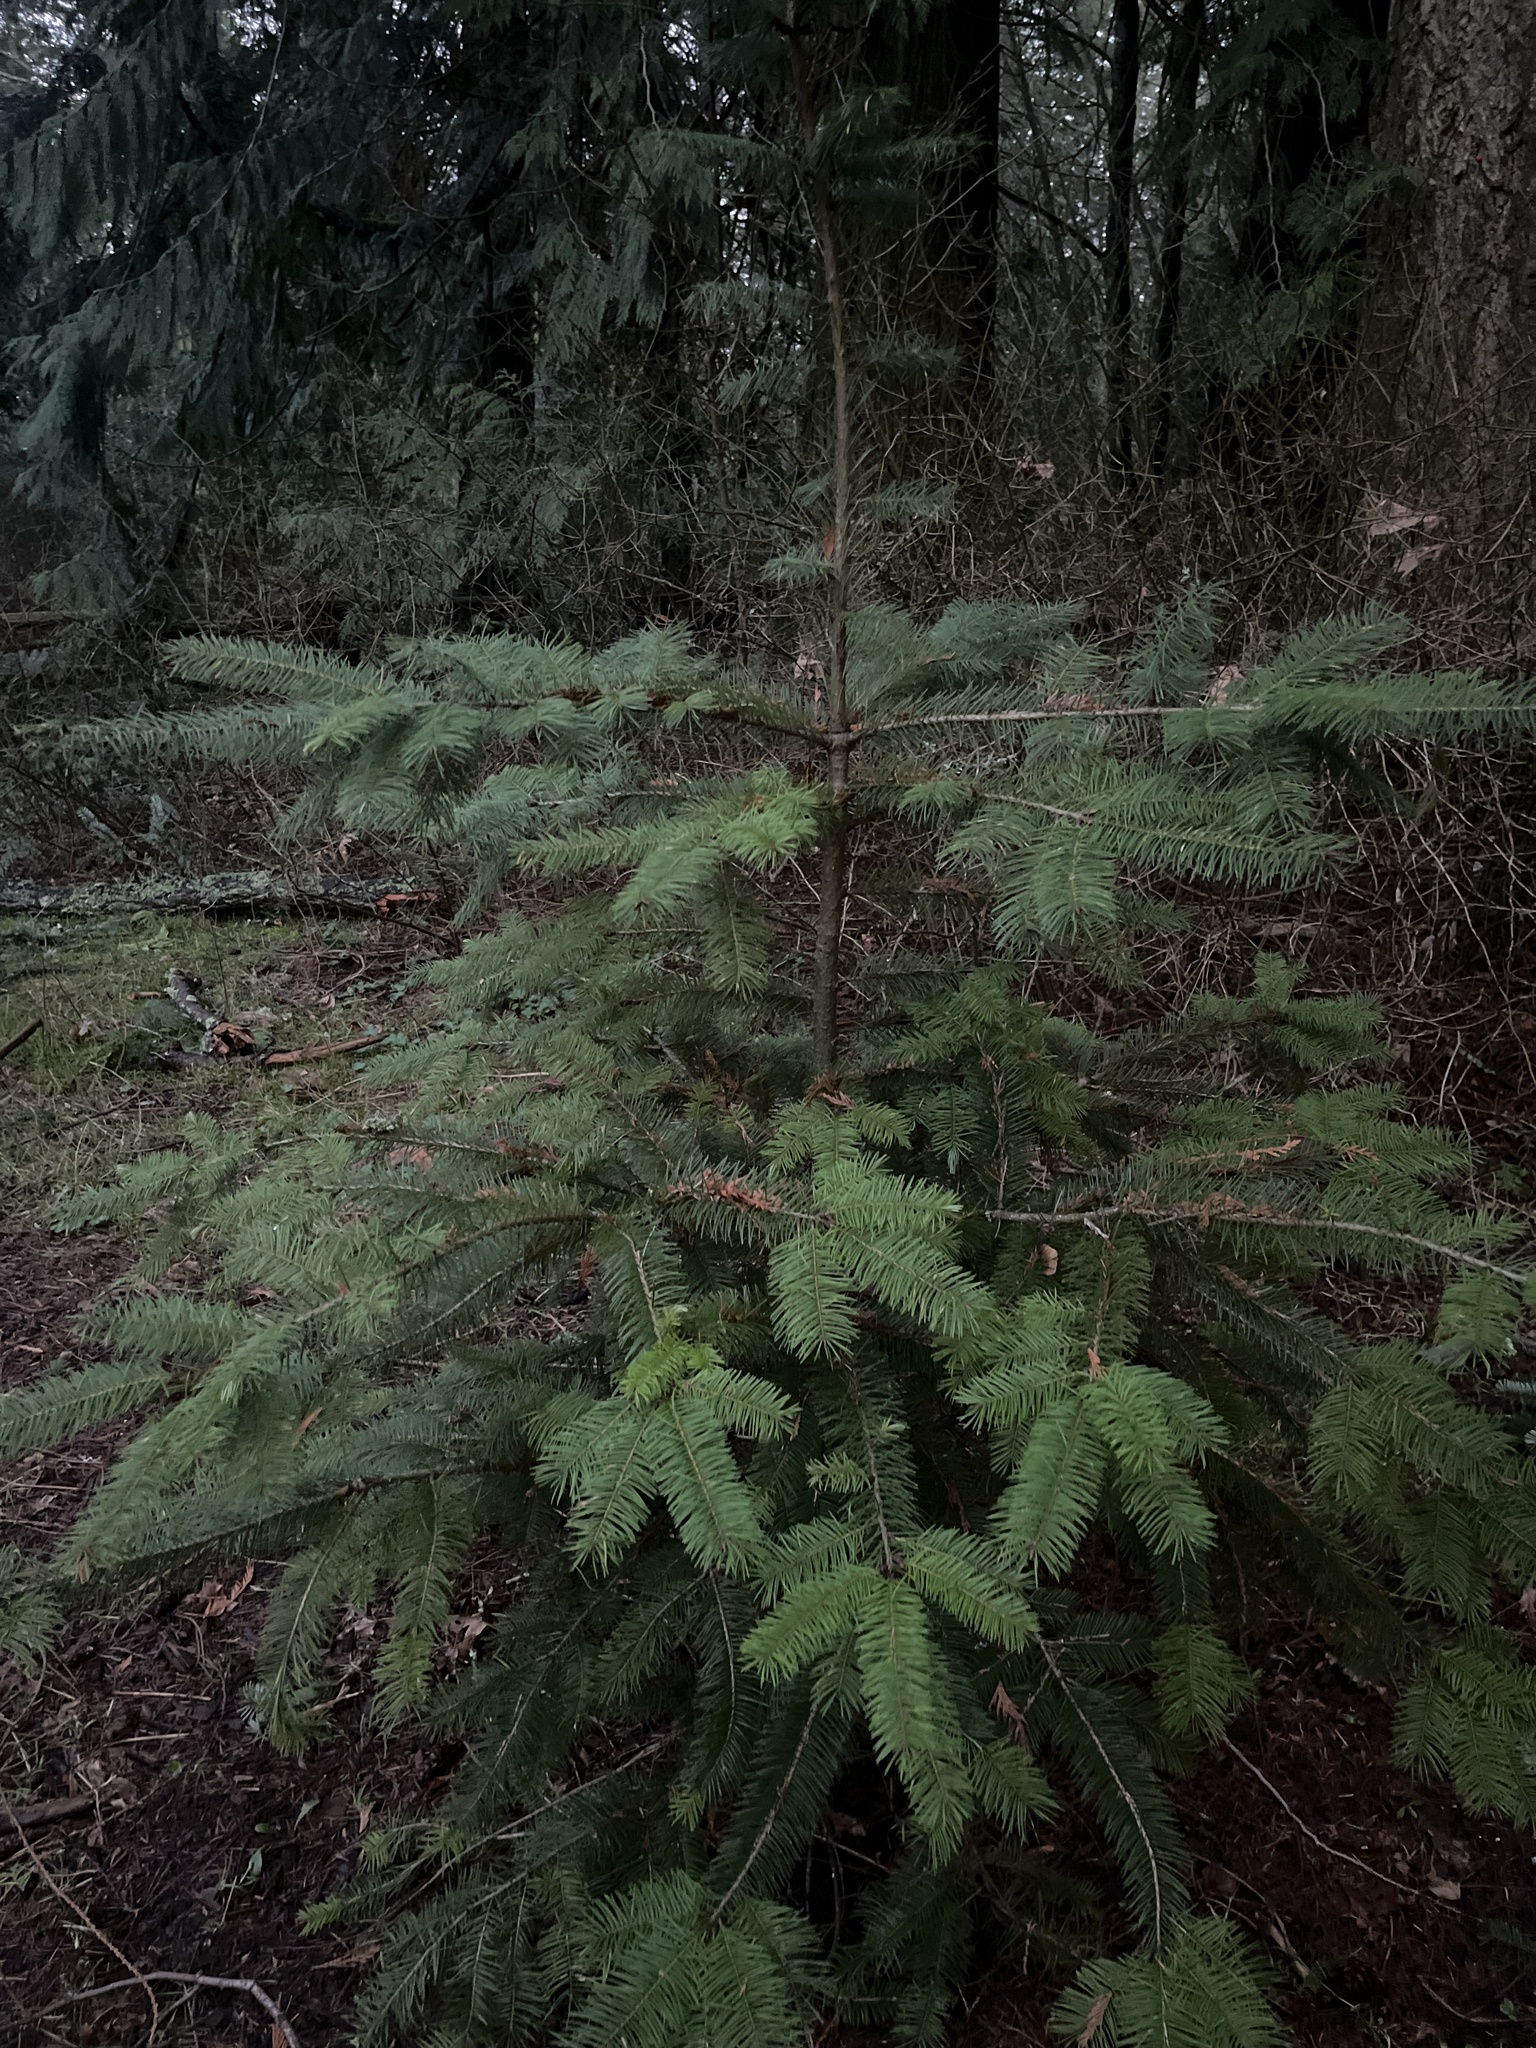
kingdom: Plantae
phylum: Tracheophyta
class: Pinopsida
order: Pinales
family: Pinaceae
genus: Pseudotsuga
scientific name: Pseudotsuga menziesii
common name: Douglas fir
